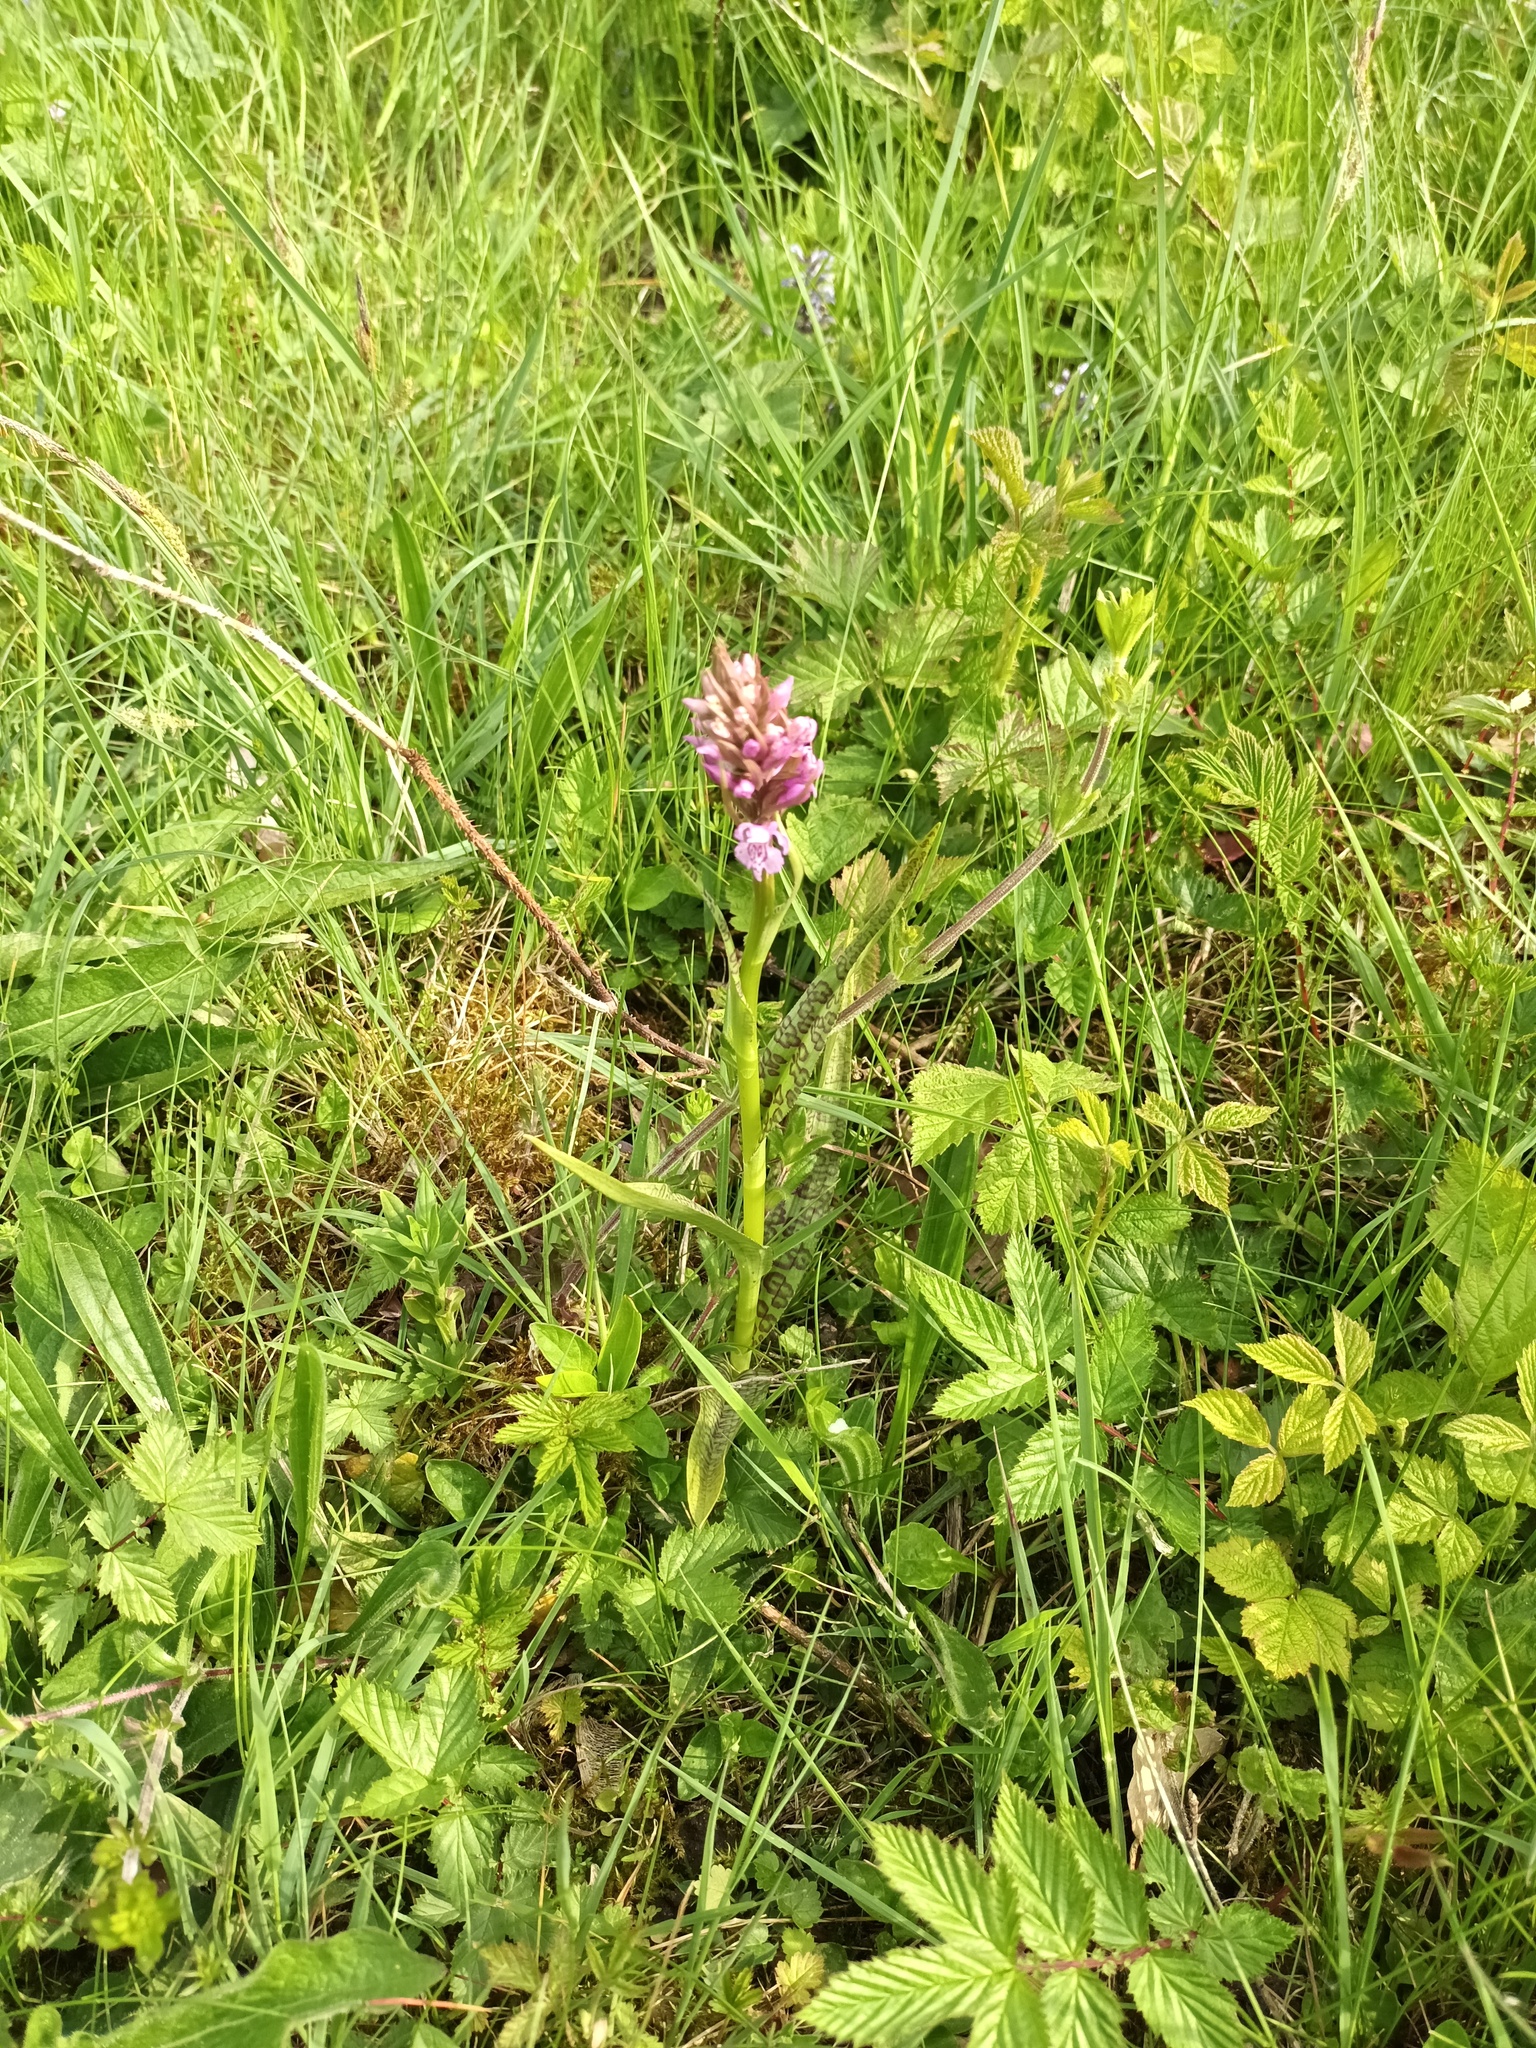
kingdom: Plantae
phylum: Tracheophyta
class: Liliopsida
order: Asparagales
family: Orchidaceae
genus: Dactylorhiza
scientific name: Dactylorhiza majalis
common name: Marsh orchid
